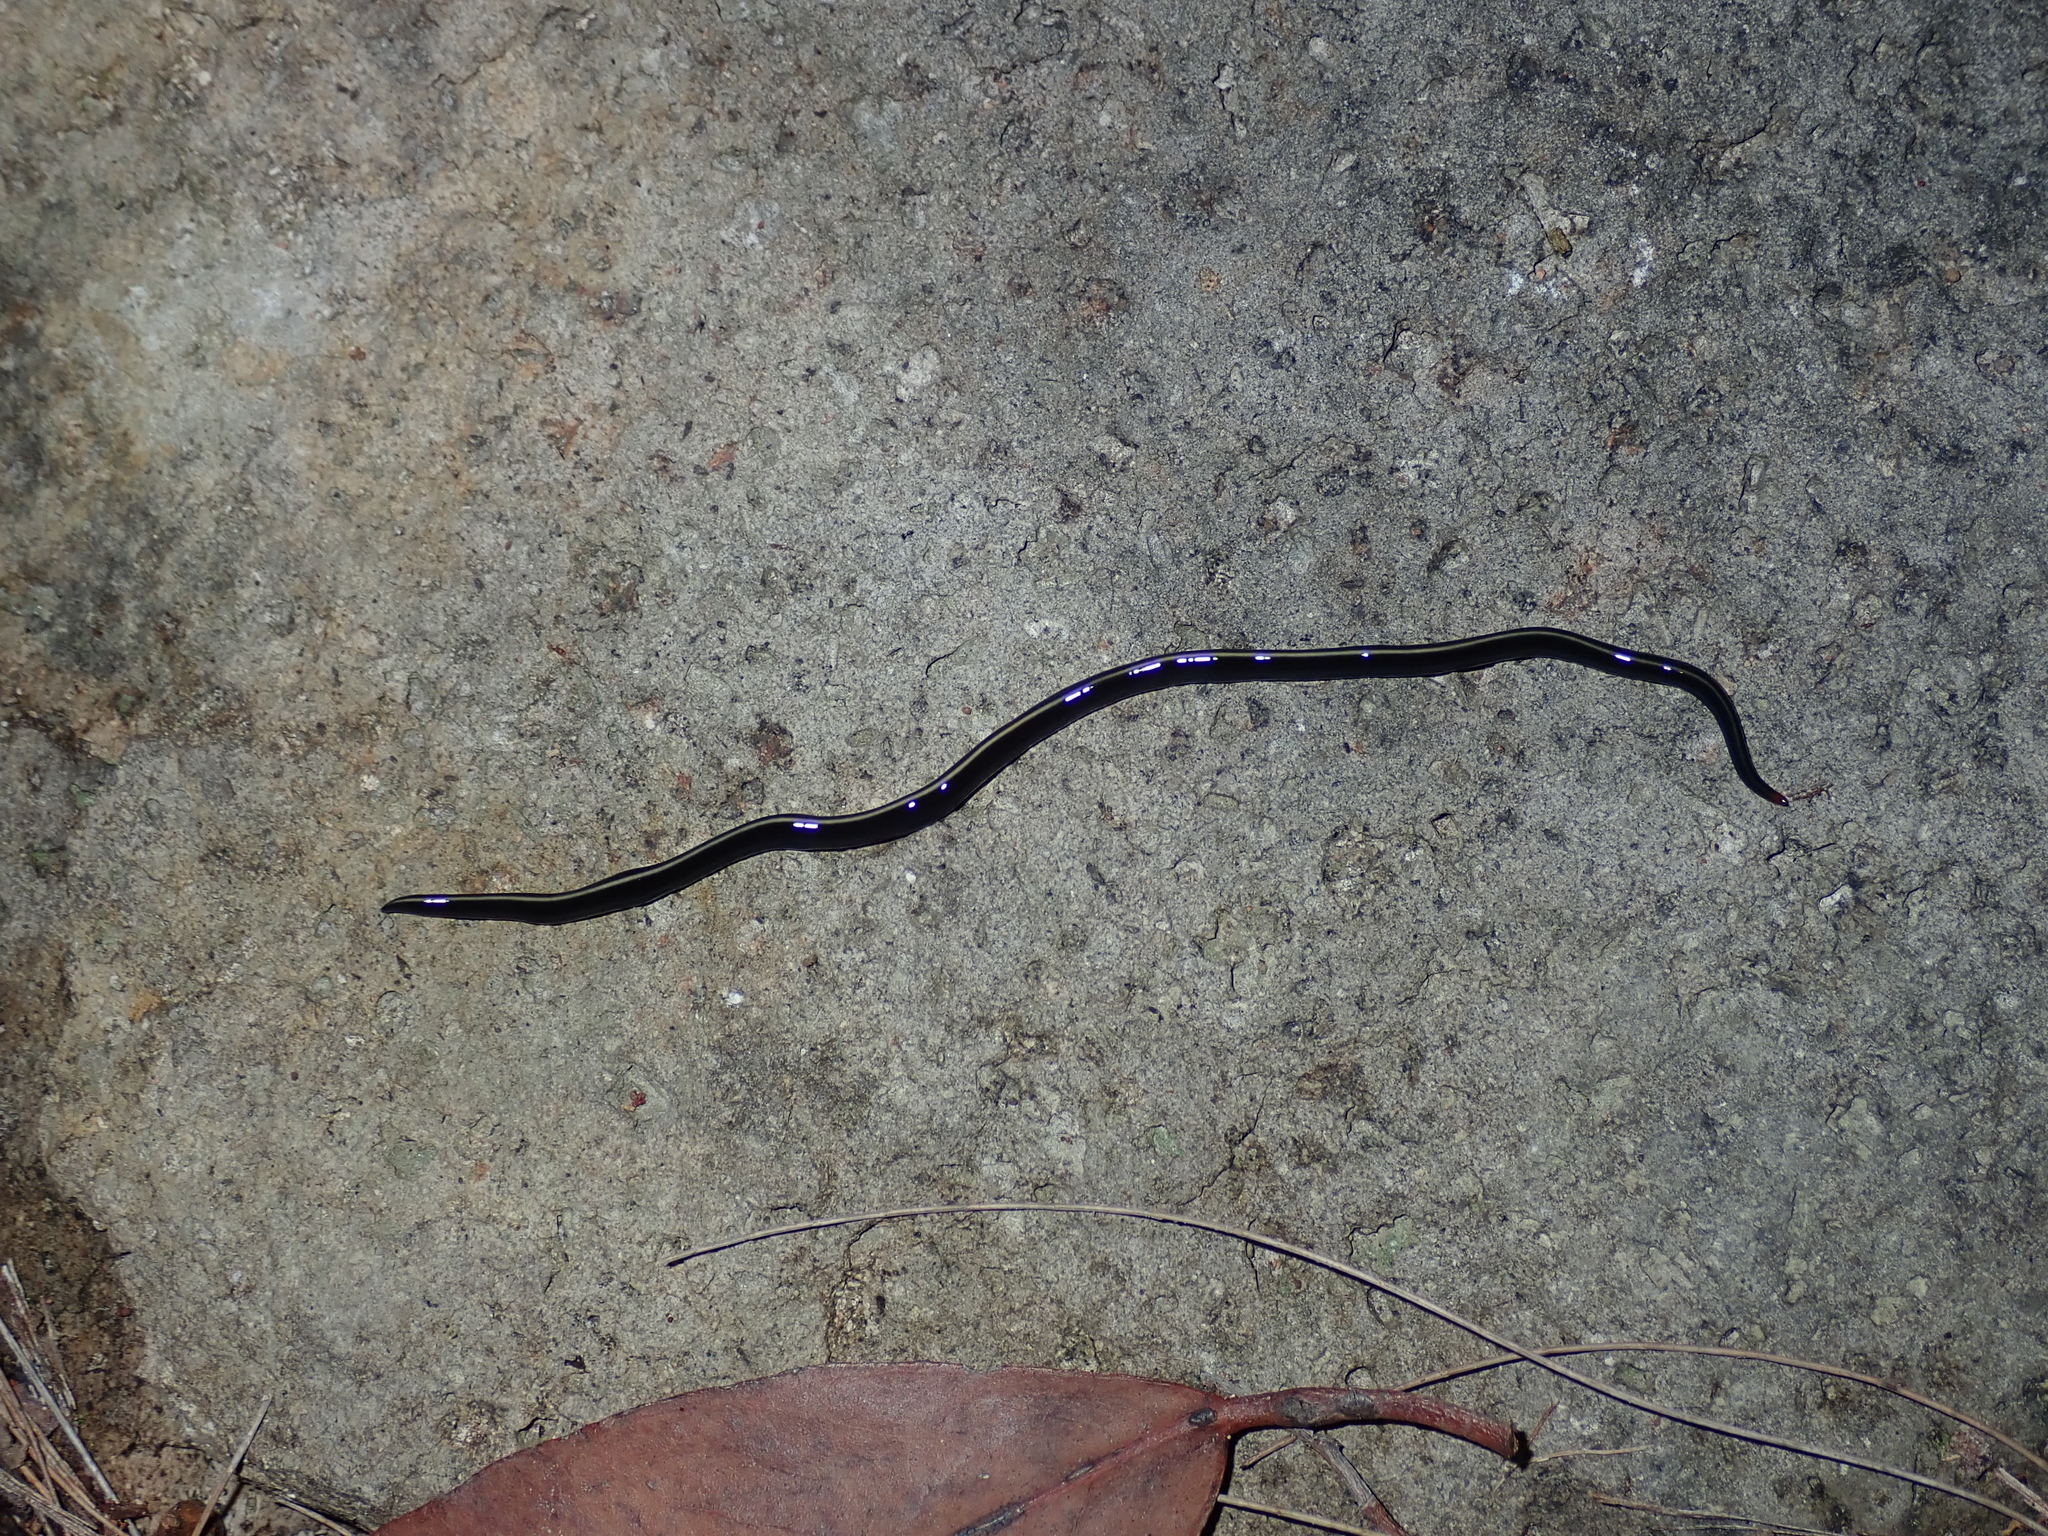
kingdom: Animalia
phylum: Platyhelminthes
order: Tricladida
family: Geoplanidae
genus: Caenoplana
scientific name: Caenoplana coerulea
